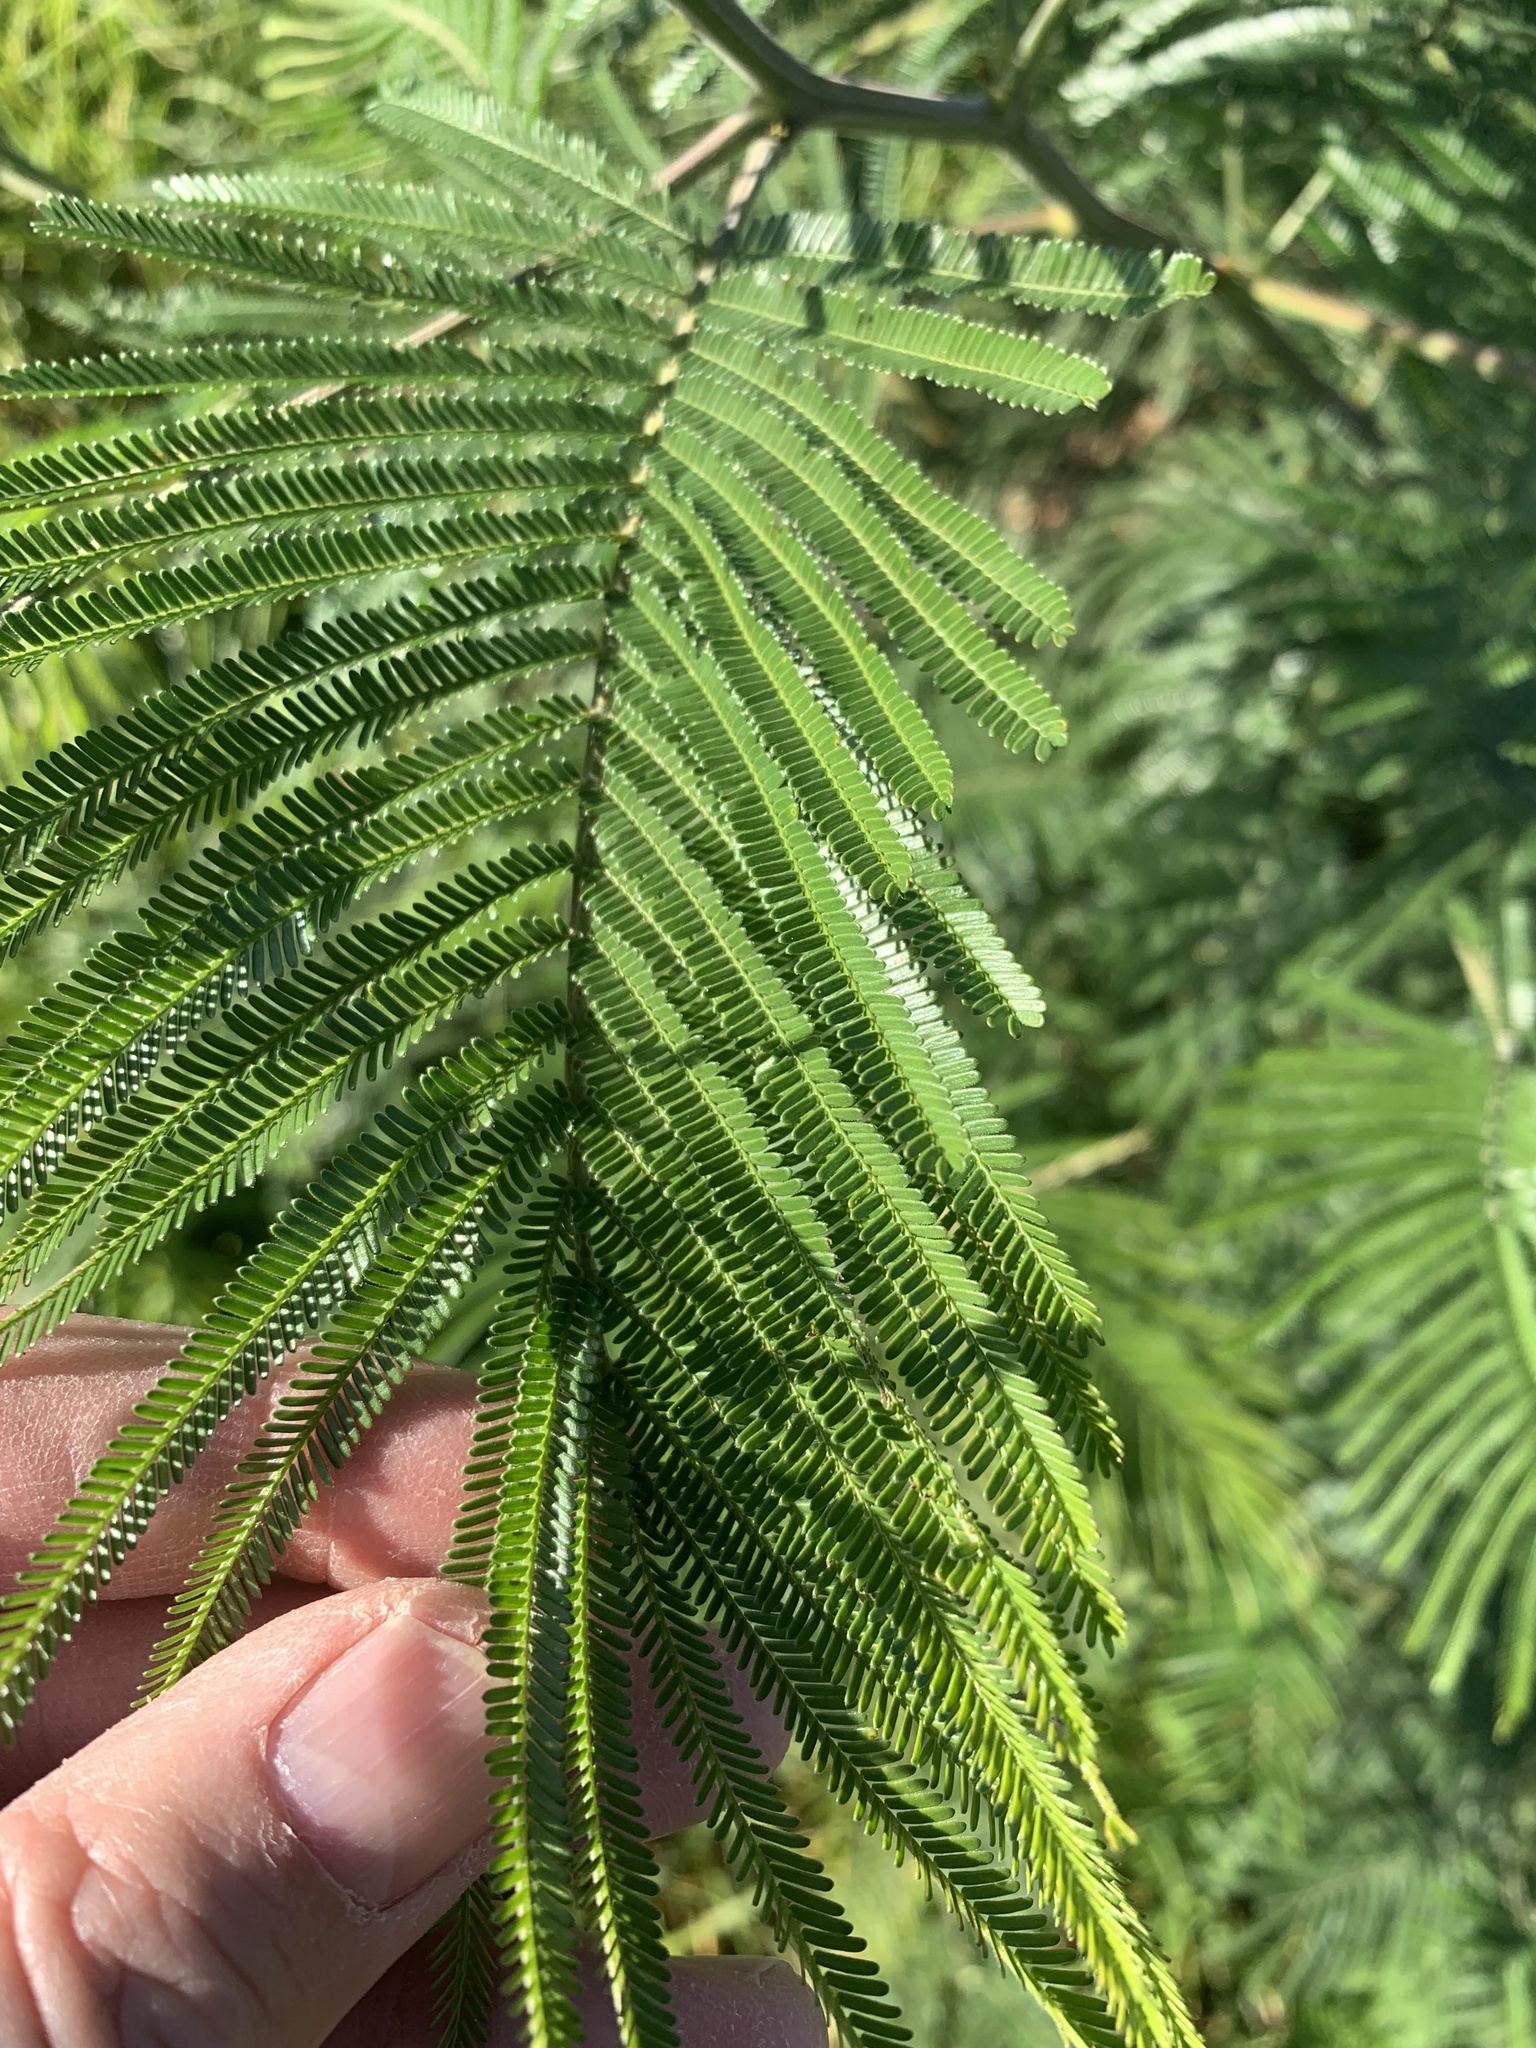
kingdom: Plantae
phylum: Tracheophyta
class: Magnoliopsida
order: Fabales
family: Fabaceae
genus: Acacia
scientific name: Acacia mearnsii
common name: Black wattle
